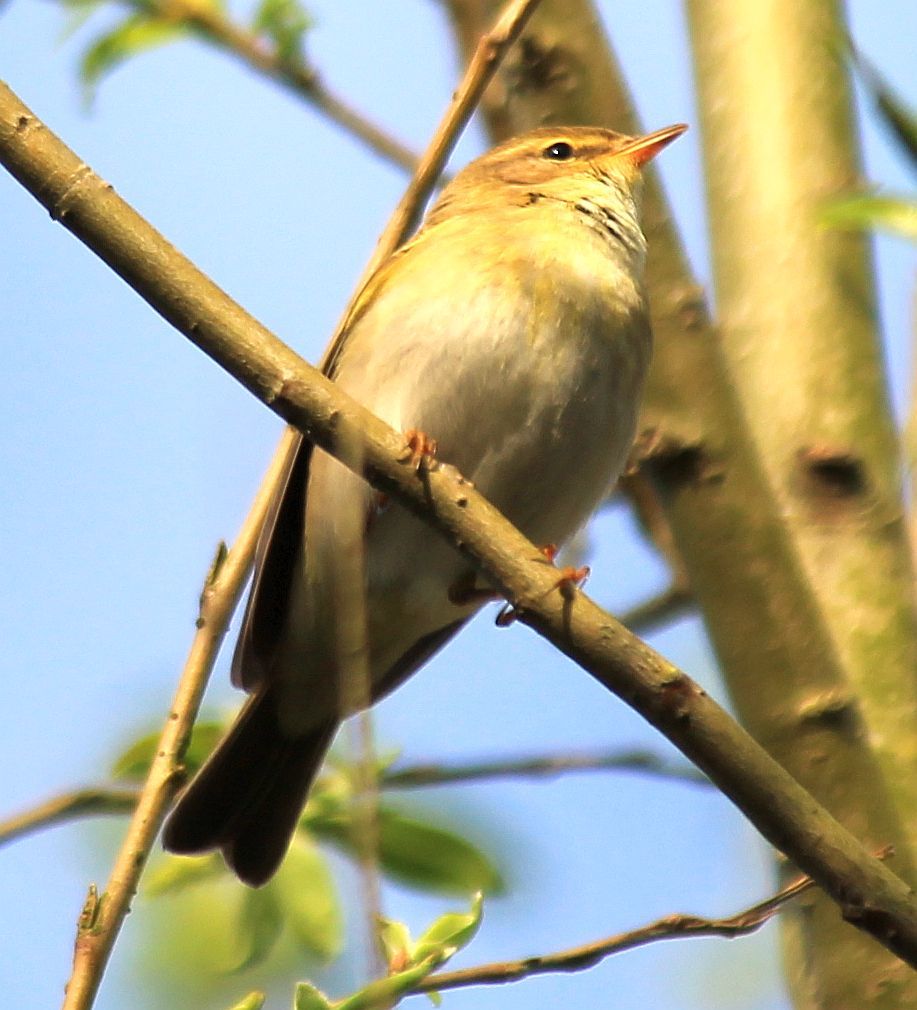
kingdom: Animalia
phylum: Chordata
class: Aves
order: Passeriformes
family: Phylloscopidae
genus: Phylloscopus
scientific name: Phylloscopus trochilus
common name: Willow warbler
